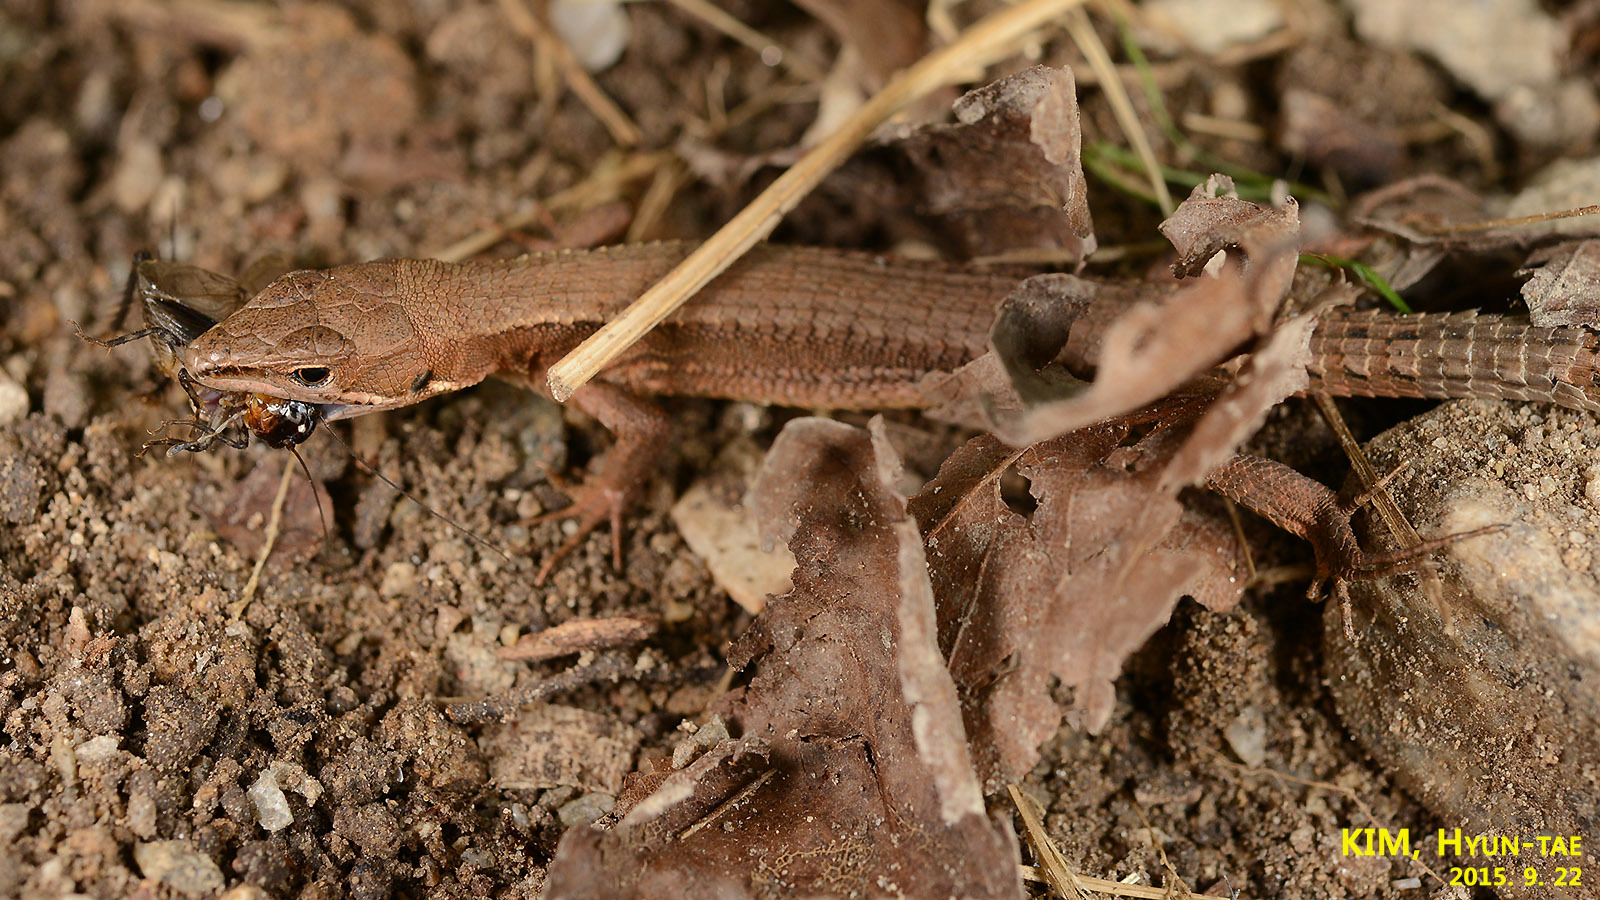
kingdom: Animalia
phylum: Chordata
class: Squamata
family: Lacertidae
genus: Takydromus
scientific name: Takydromus amurensis
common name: Amur grass lizard
